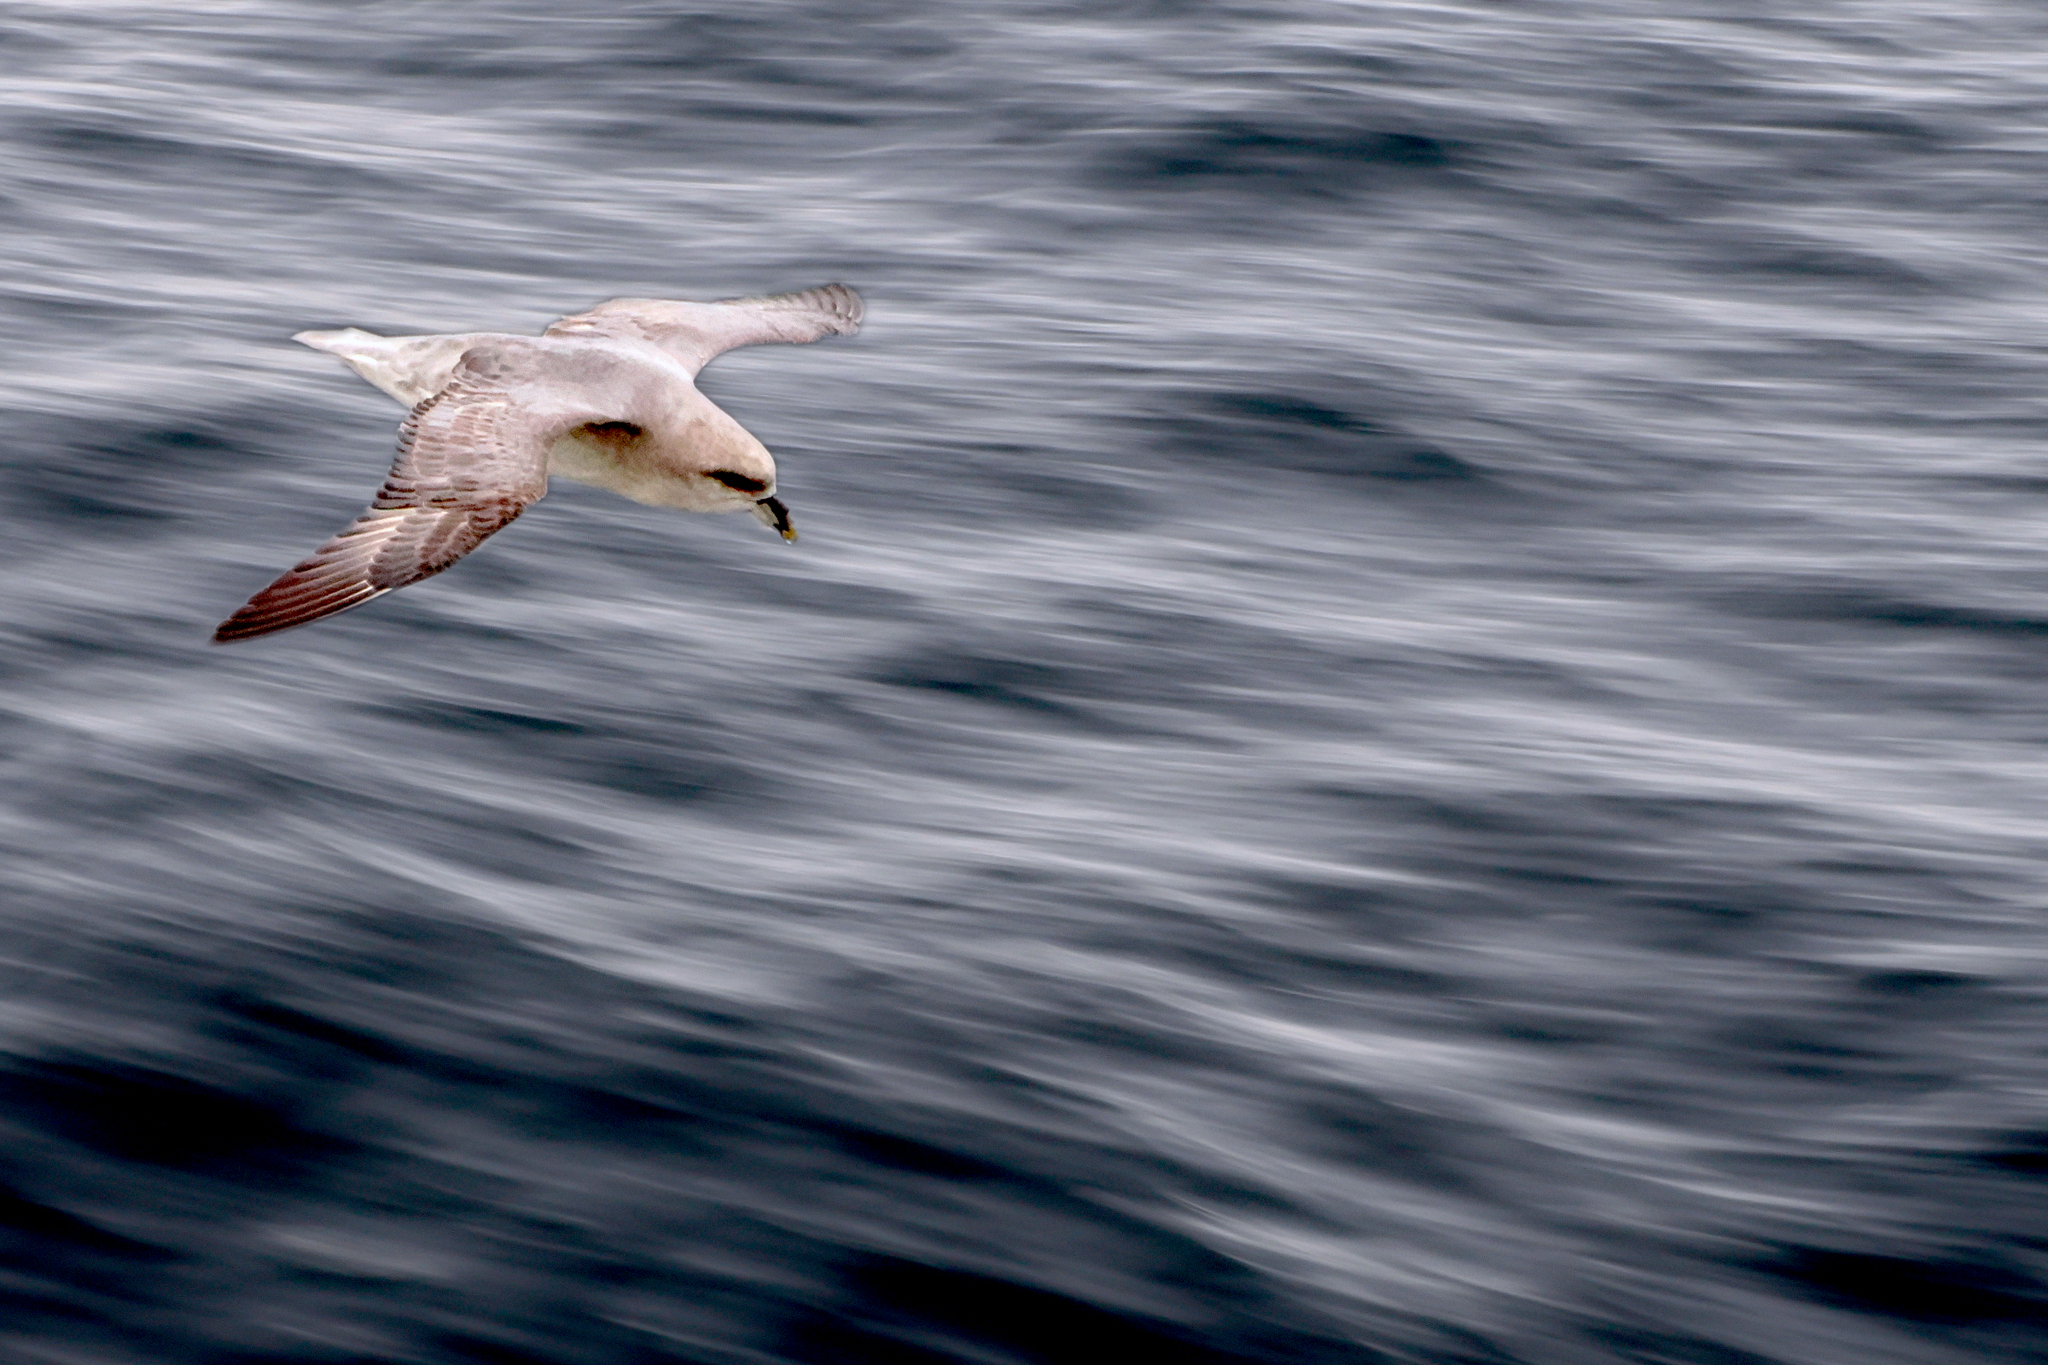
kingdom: Animalia
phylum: Chordata
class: Aves
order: Procellariiformes
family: Procellariidae
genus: Fulmarus
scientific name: Fulmarus glacialis
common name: Northern fulmar
